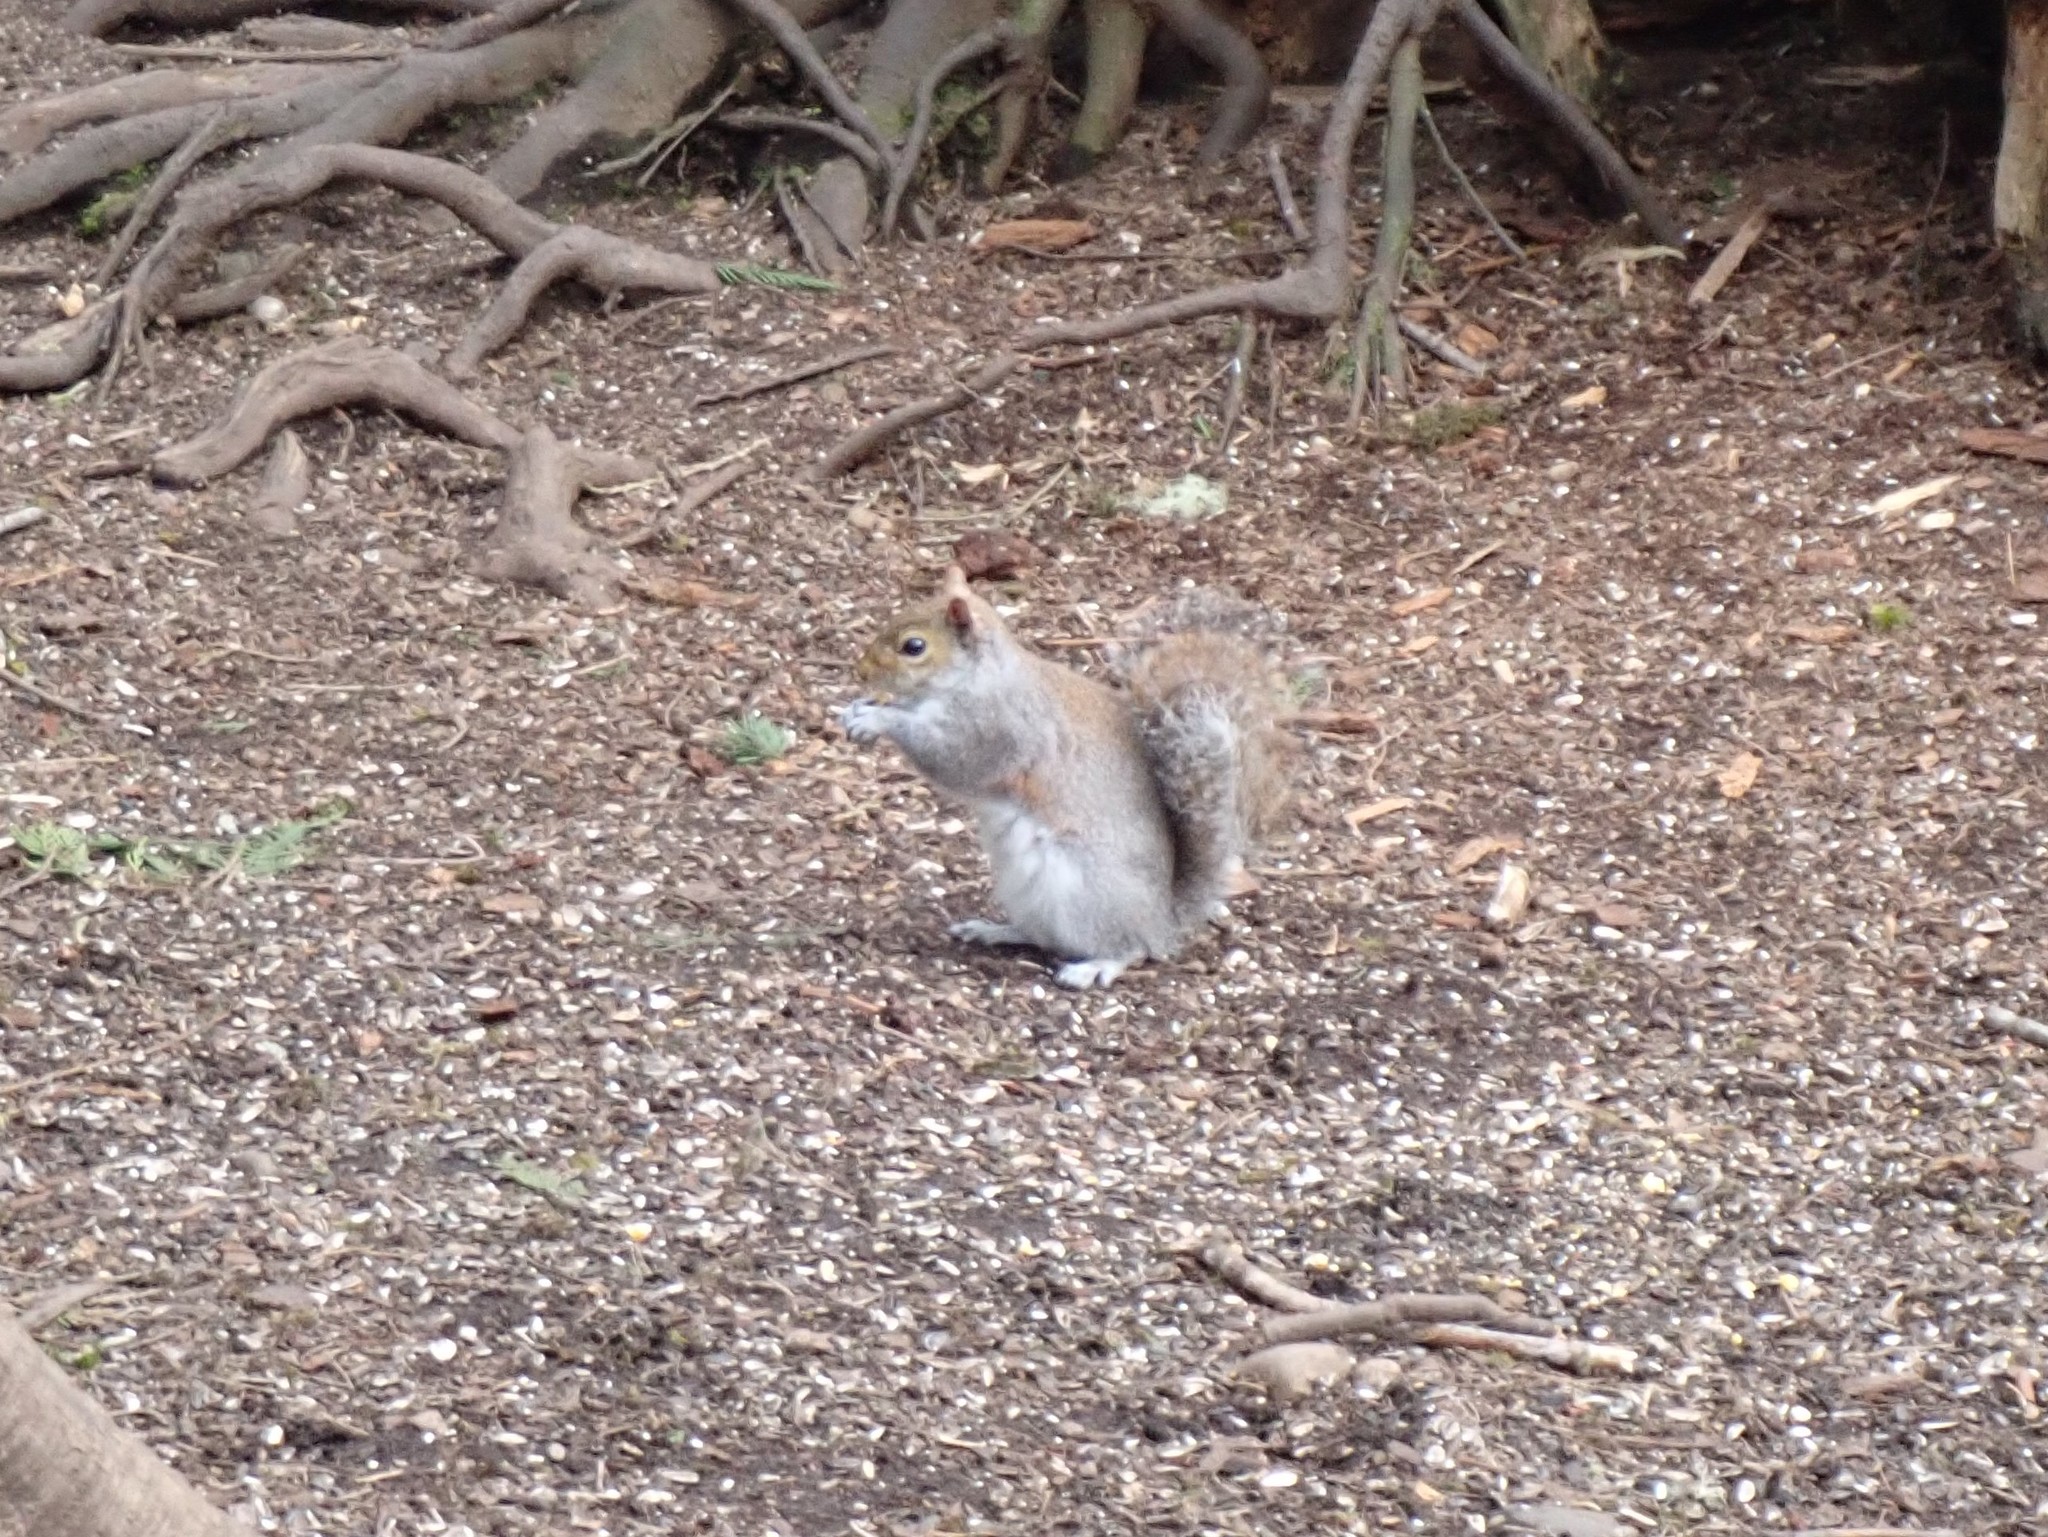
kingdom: Animalia
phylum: Chordata
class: Mammalia
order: Rodentia
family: Sciuridae
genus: Sciurus
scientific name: Sciurus carolinensis
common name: Eastern gray squirrel
